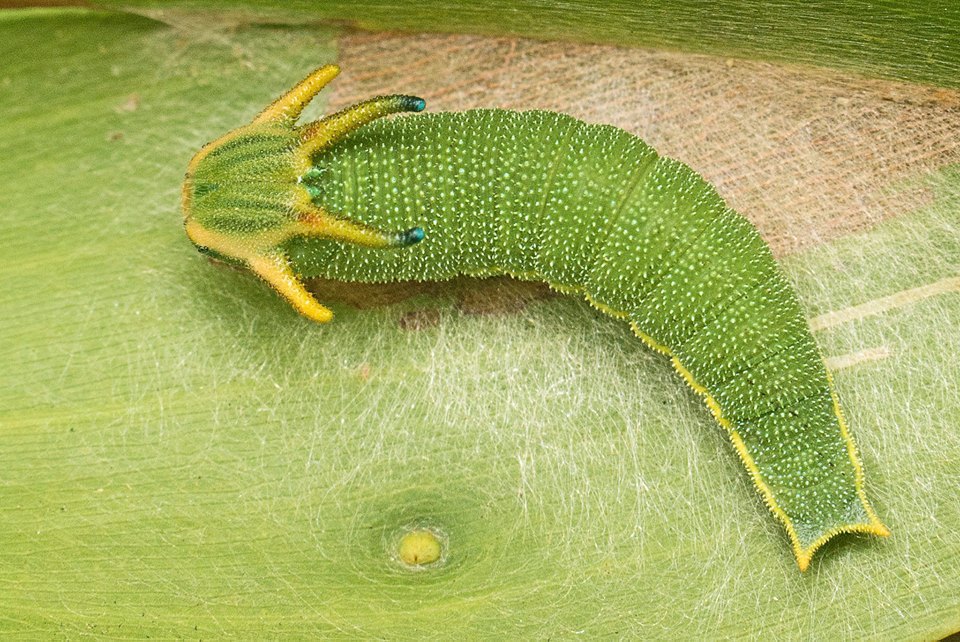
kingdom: Animalia
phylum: Arthropoda
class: Insecta
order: Lepidoptera
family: Nymphalidae
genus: Charaxes
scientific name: Charaxes
